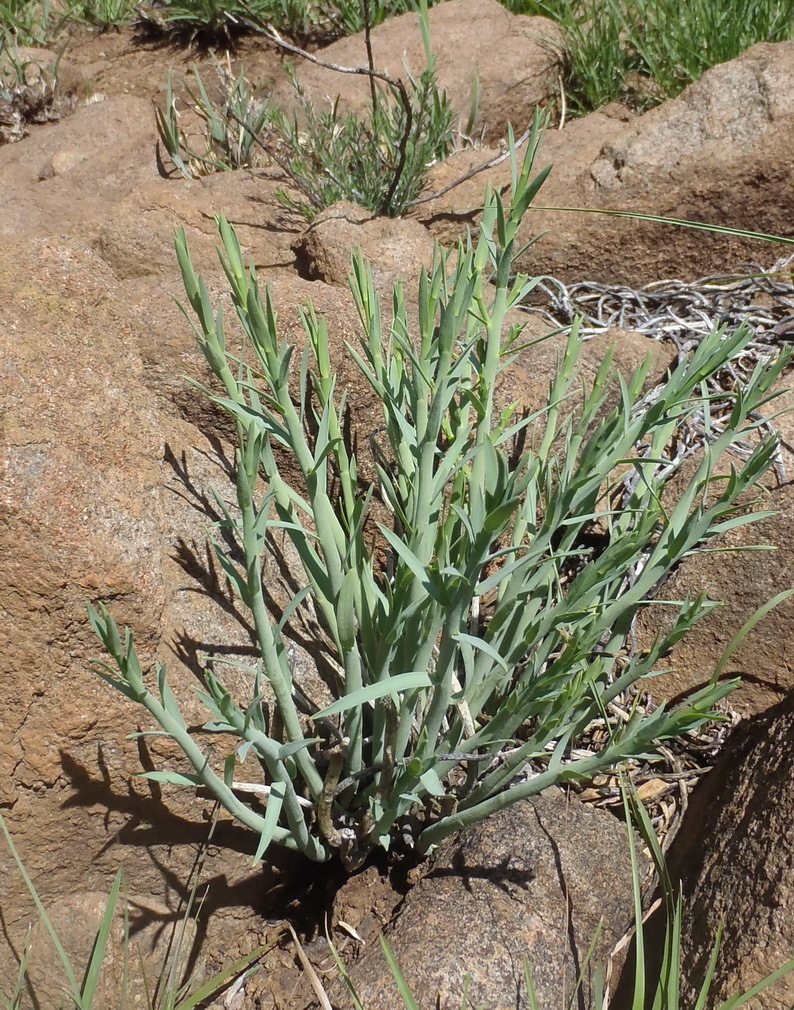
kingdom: Plantae
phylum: Tracheophyta
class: Magnoliopsida
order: Malpighiales
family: Euphorbiaceae
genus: Euphorbia
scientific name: Euphorbia mauritanica
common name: Jackal's-food
